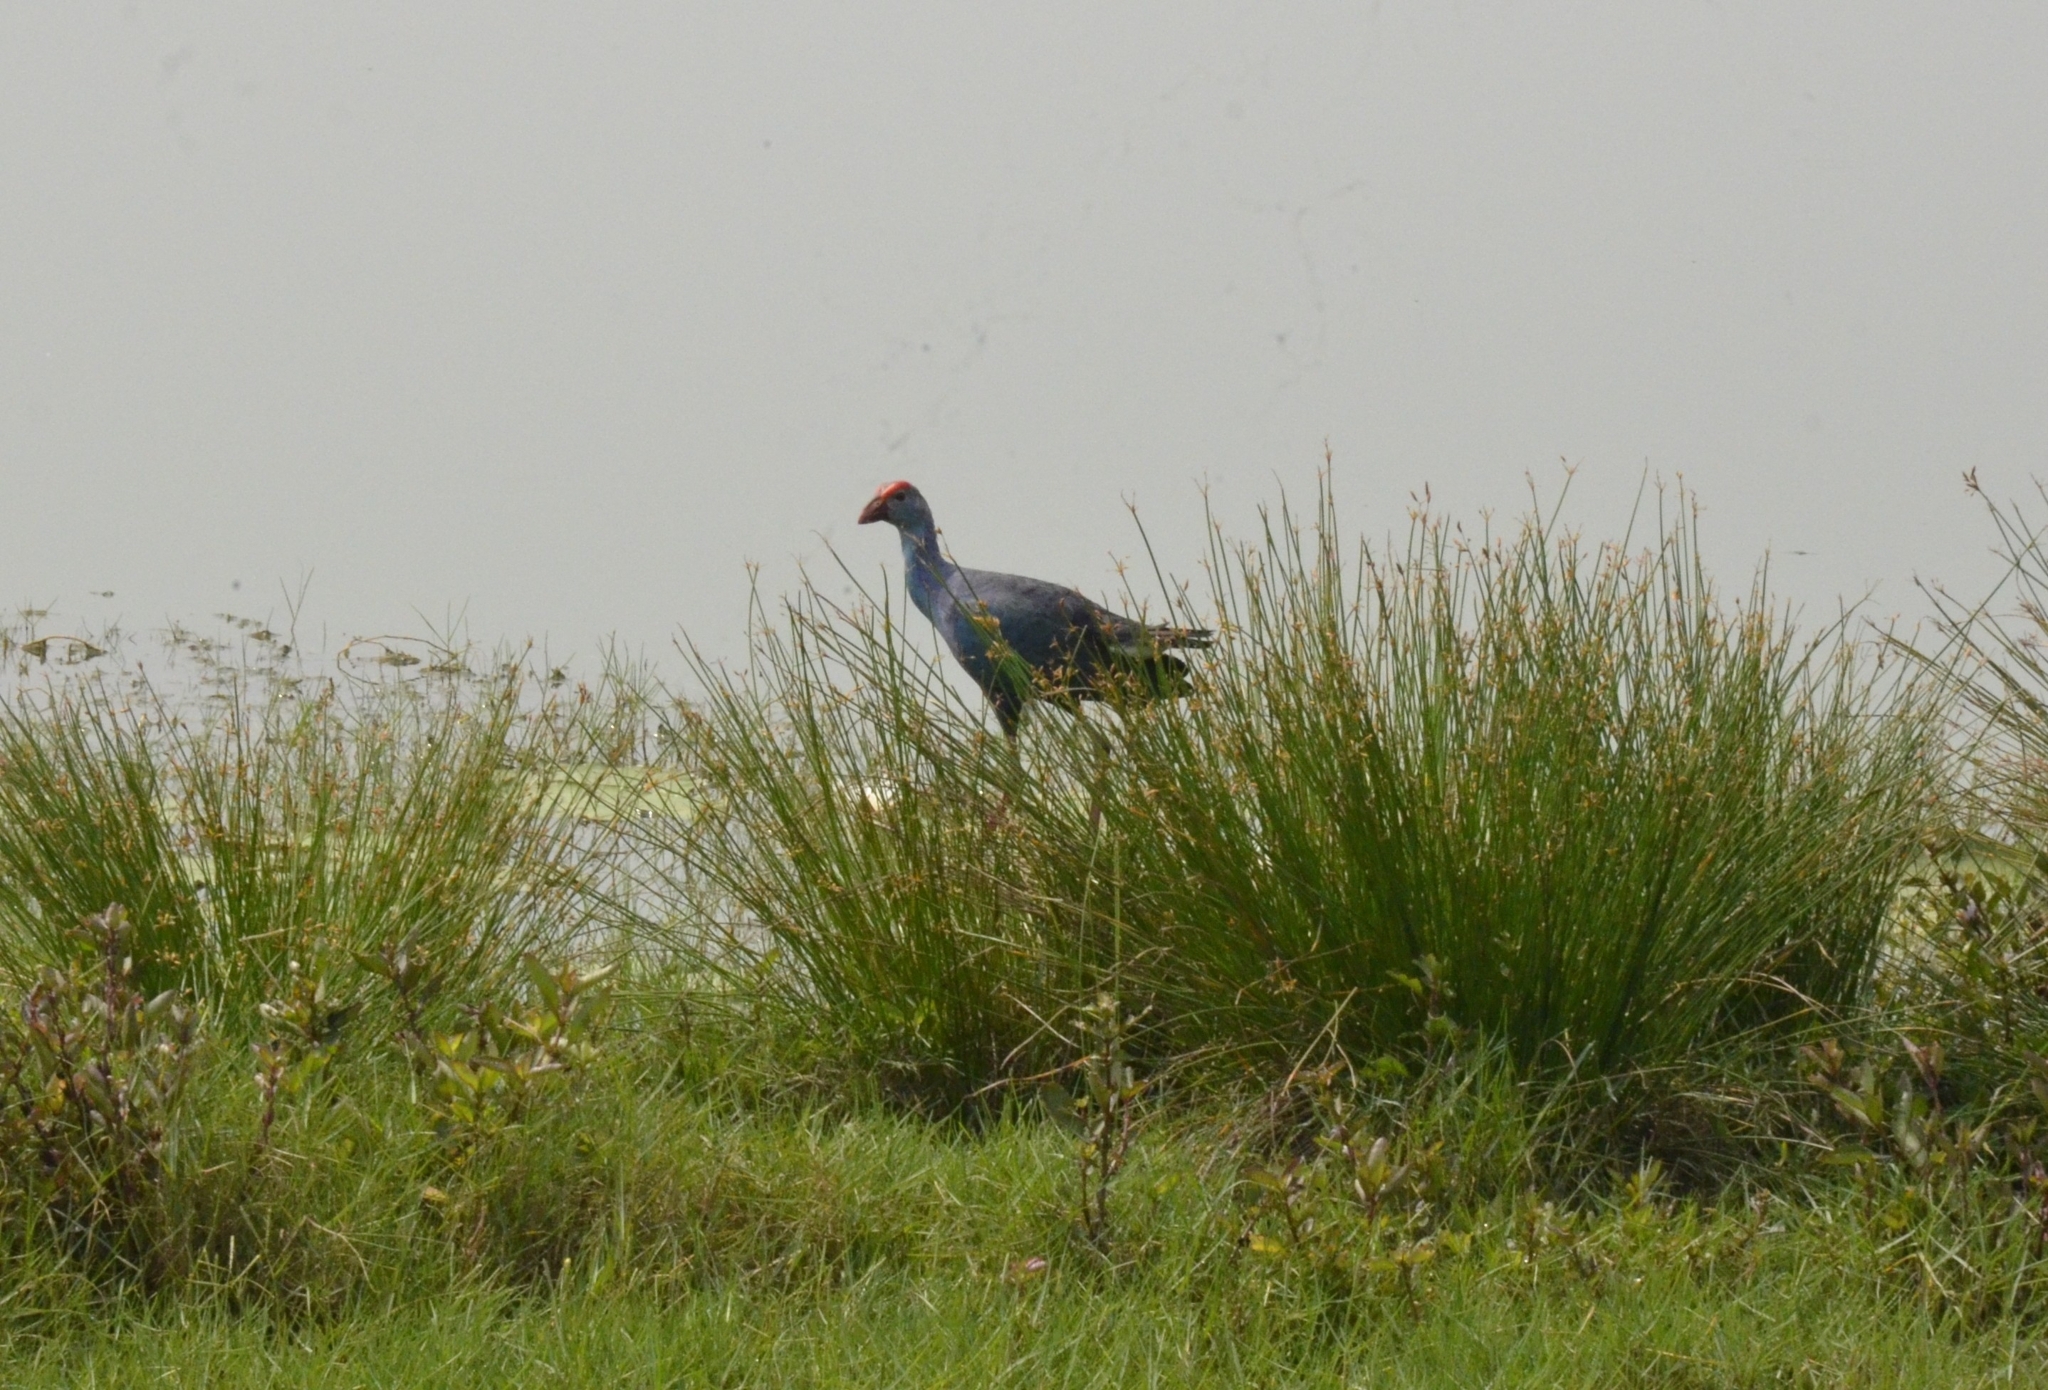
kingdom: Animalia
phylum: Chordata
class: Aves
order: Gruiformes
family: Rallidae
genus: Porphyrio
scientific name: Porphyrio porphyrio
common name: Purple swamphen
